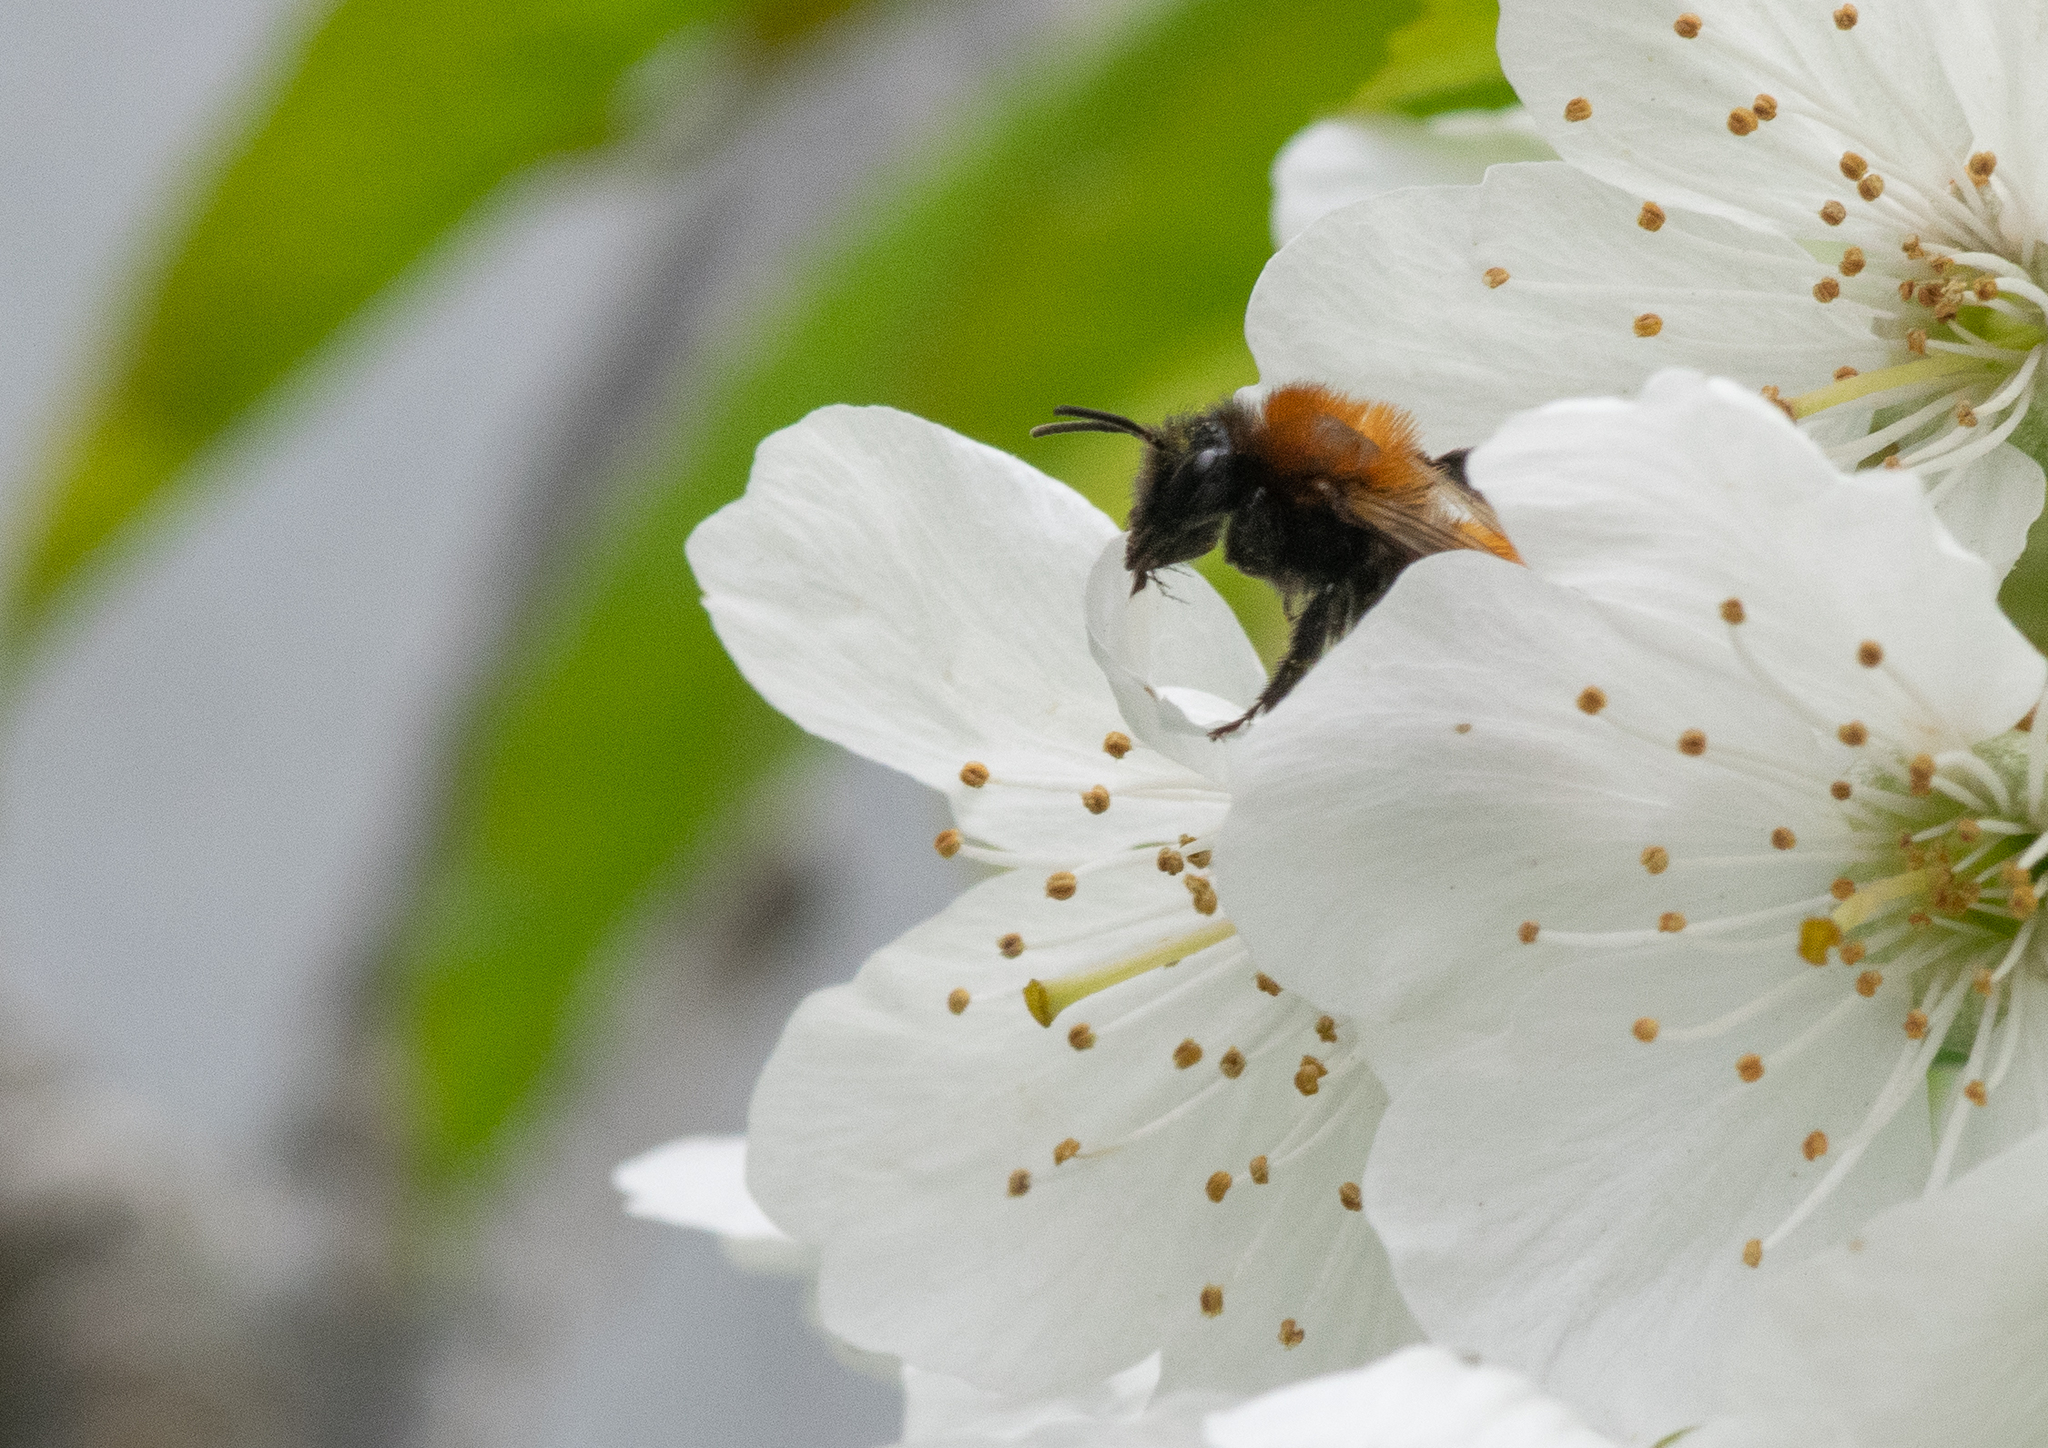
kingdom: Animalia
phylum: Arthropoda
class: Insecta
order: Hymenoptera
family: Andrenidae
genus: Andrena
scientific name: Andrena fulva
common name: Tawny mining bee
